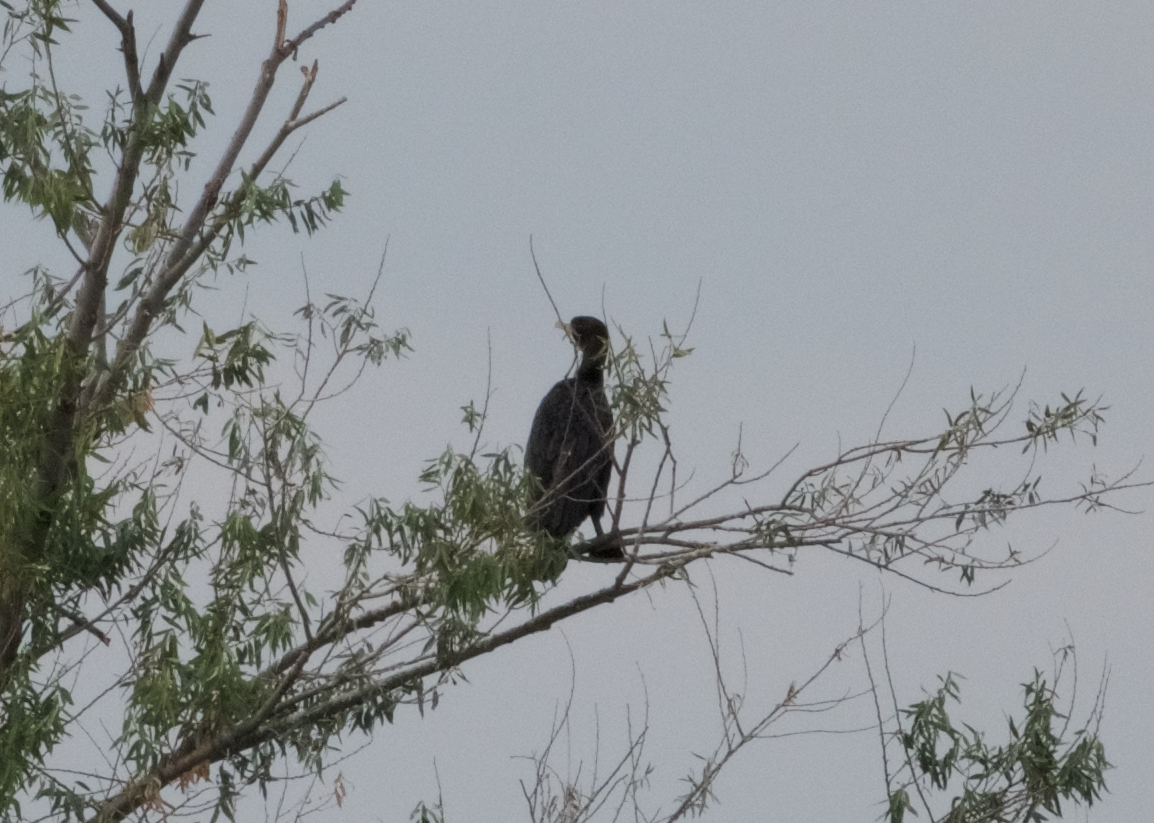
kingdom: Animalia
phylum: Chordata
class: Aves
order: Suliformes
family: Phalacrocoracidae
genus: Phalacrocorax
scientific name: Phalacrocorax auritus
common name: Double-crested cormorant
